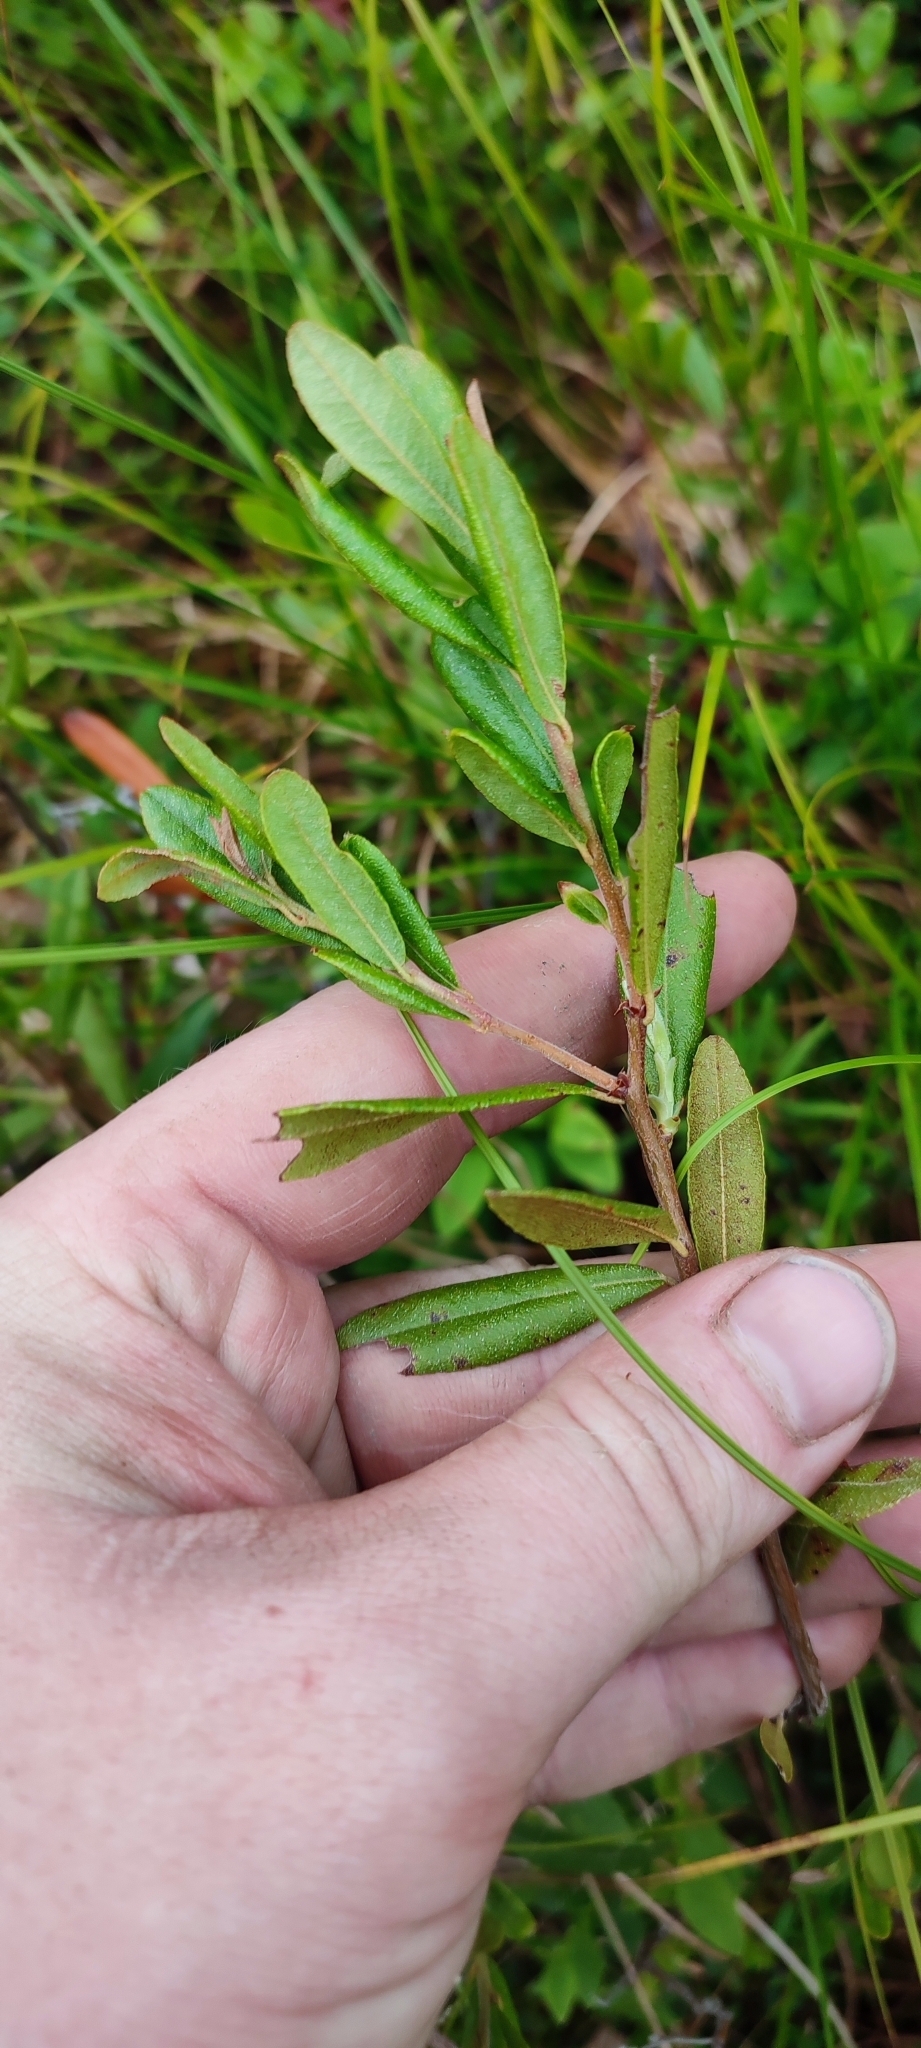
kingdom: Plantae
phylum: Tracheophyta
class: Magnoliopsida
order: Ericales
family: Ericaceae
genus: Chamaedaphne
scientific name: Chamaedaphne calyculata
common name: Leatherleaf
